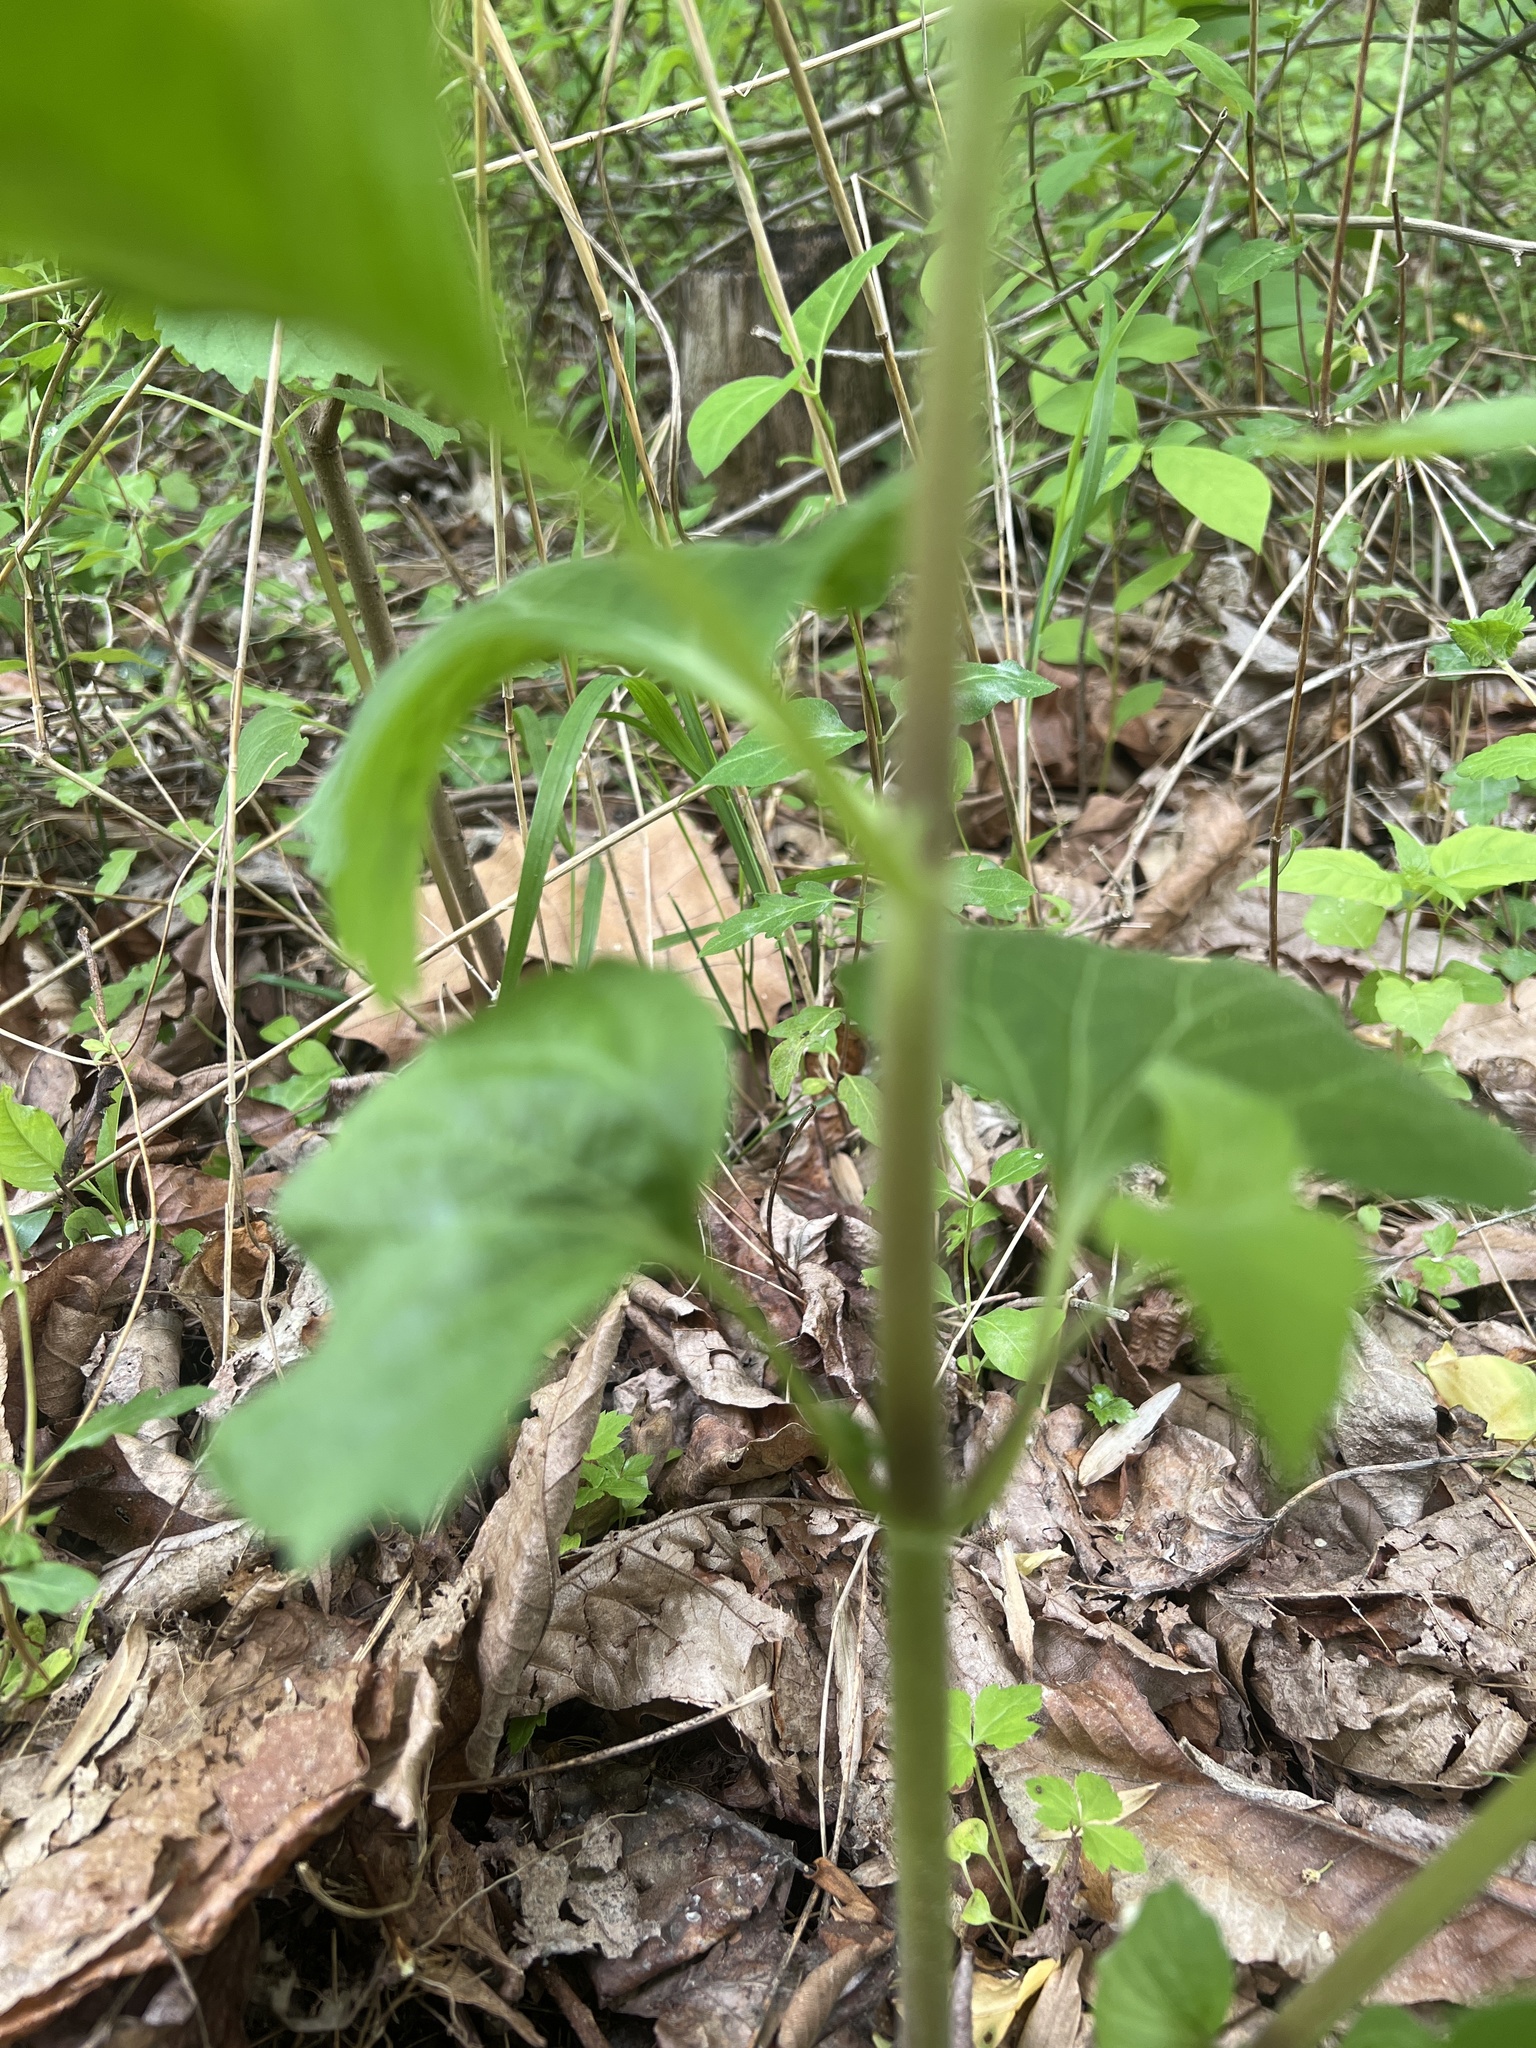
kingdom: Plantae
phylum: Tracheophyta
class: Magnoliopsida
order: Lamiales
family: Phrymaceae
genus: Phryma
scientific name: Phryma leptostachya
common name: American lopseed
